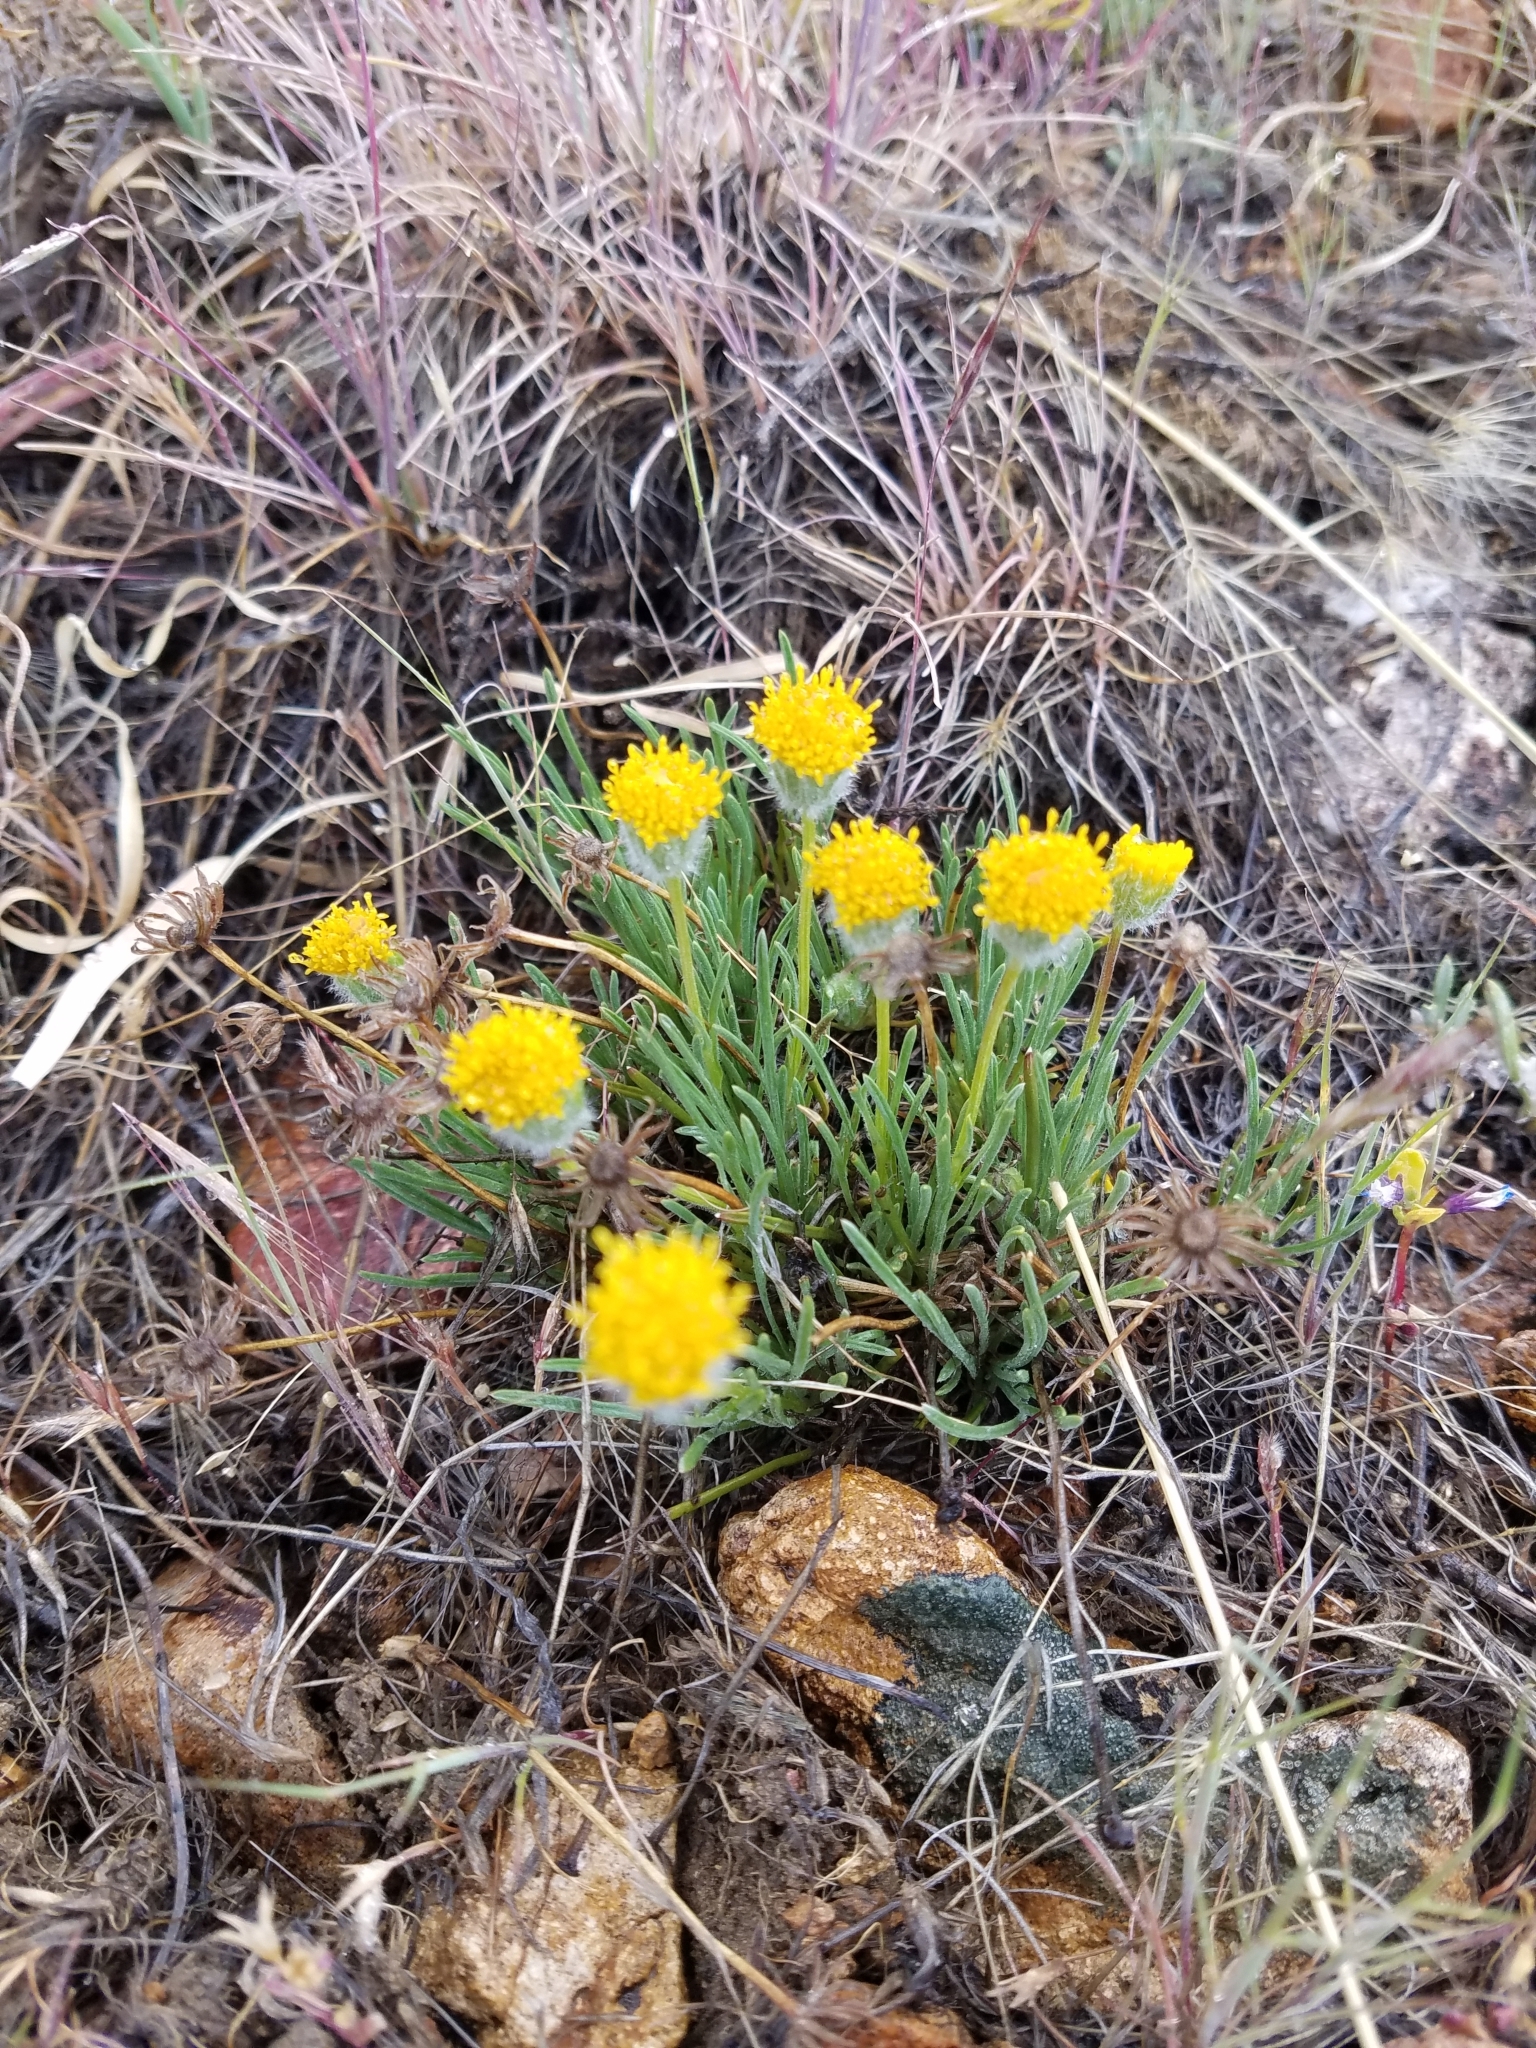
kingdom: Plantae
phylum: Tracheophyta
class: Magnoliopsida
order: Asterales
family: Asteraceae
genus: Erigeron
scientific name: Erigeron aphanactis
